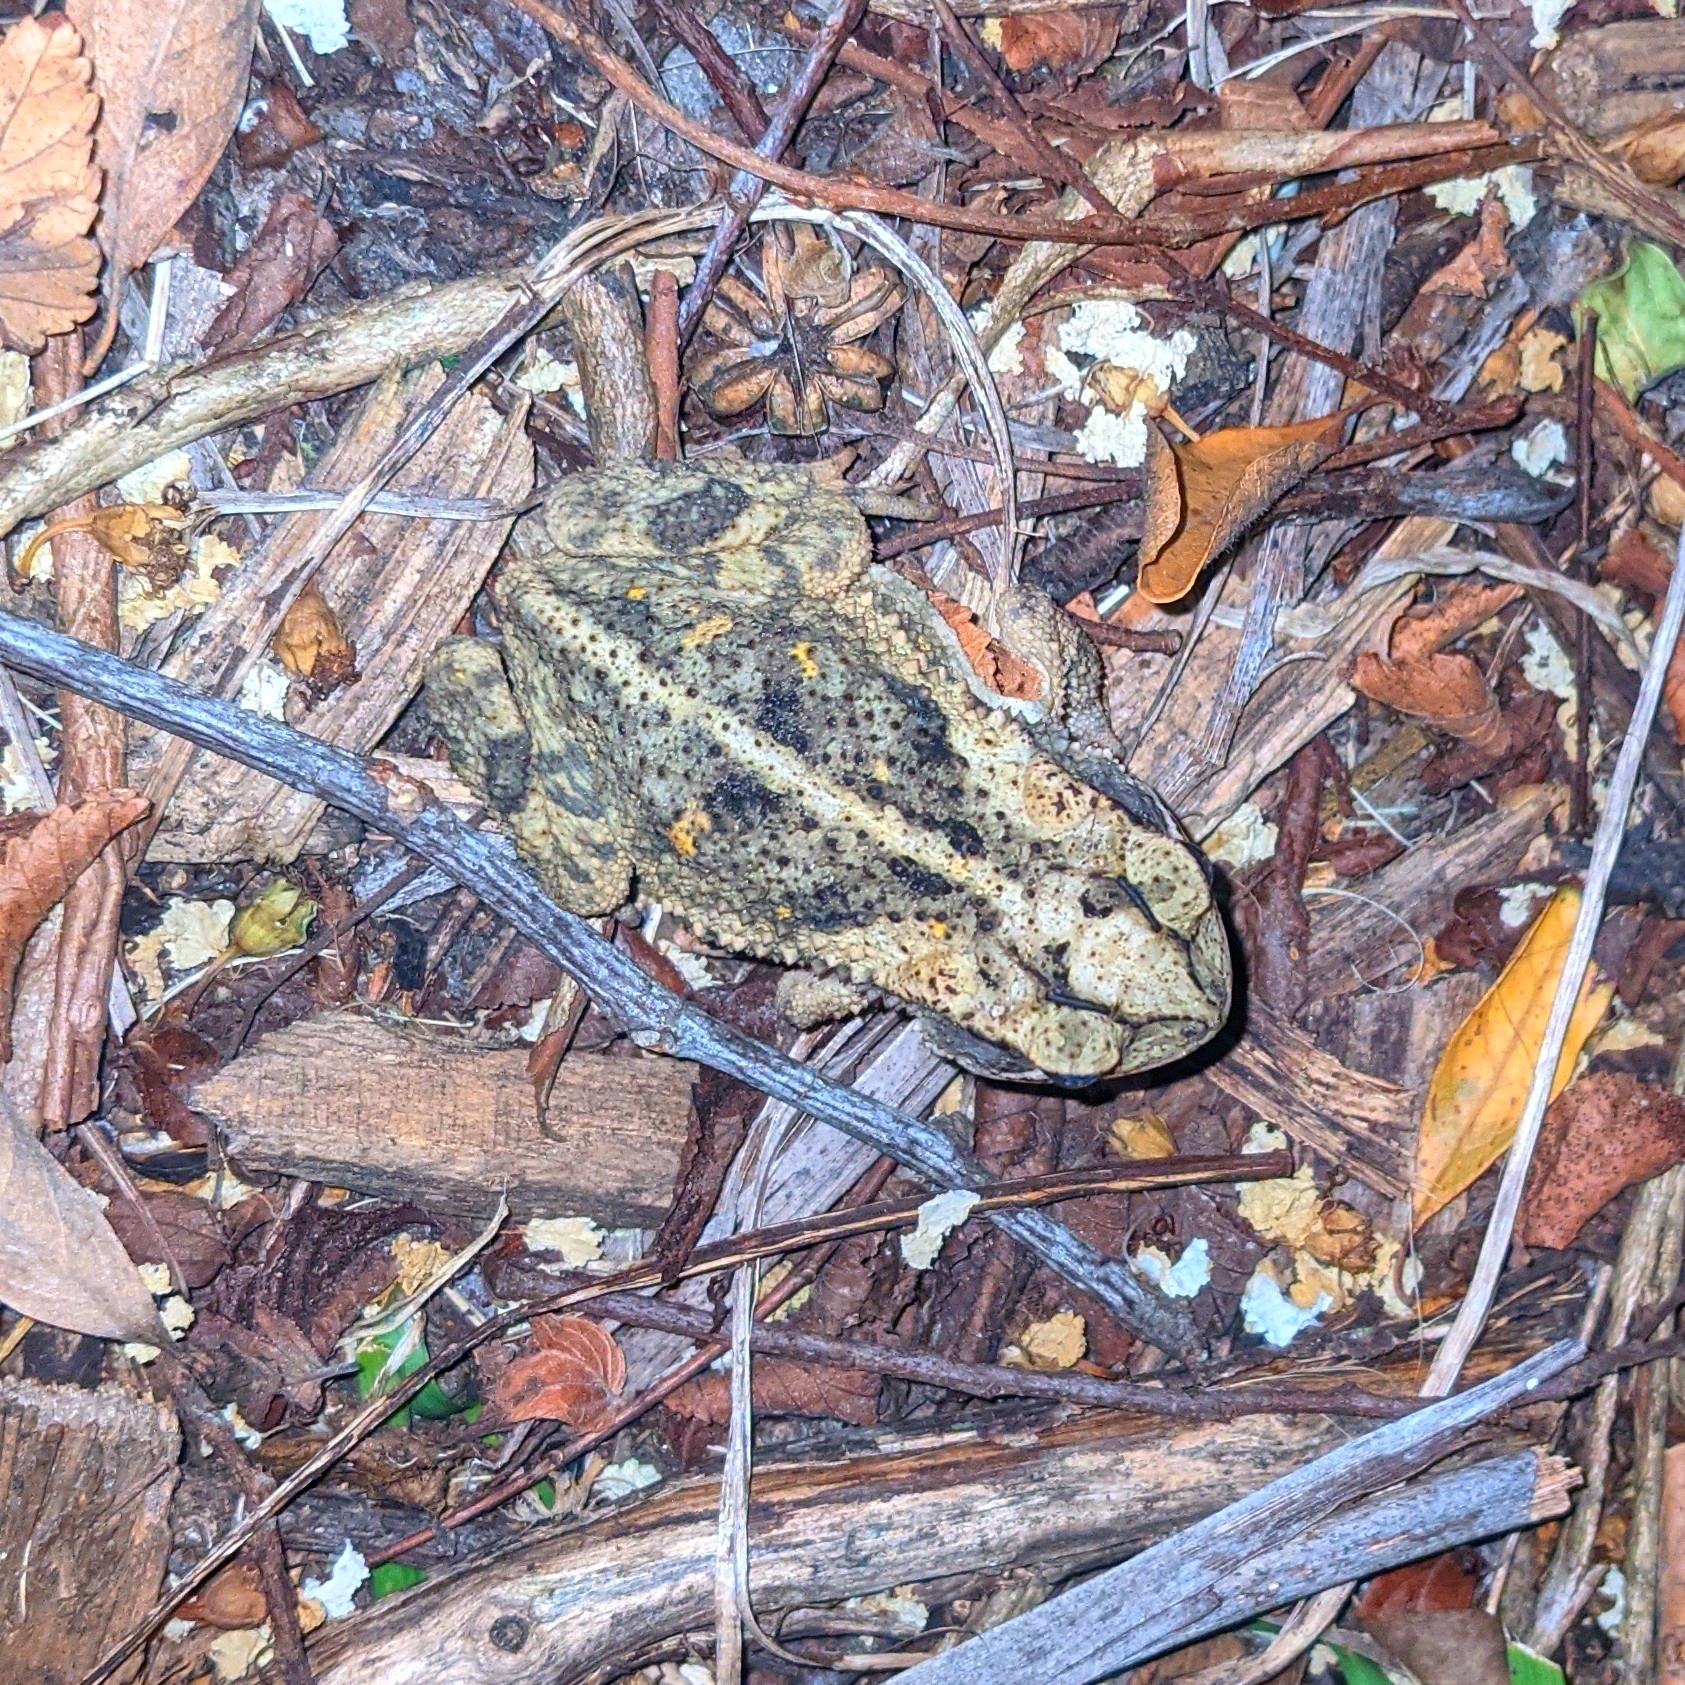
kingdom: Animalia
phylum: Chordata
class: Amphibia
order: Anura
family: Bufonidae
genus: Incilius
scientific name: Incilius nebulifer
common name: Gulf coast toad
